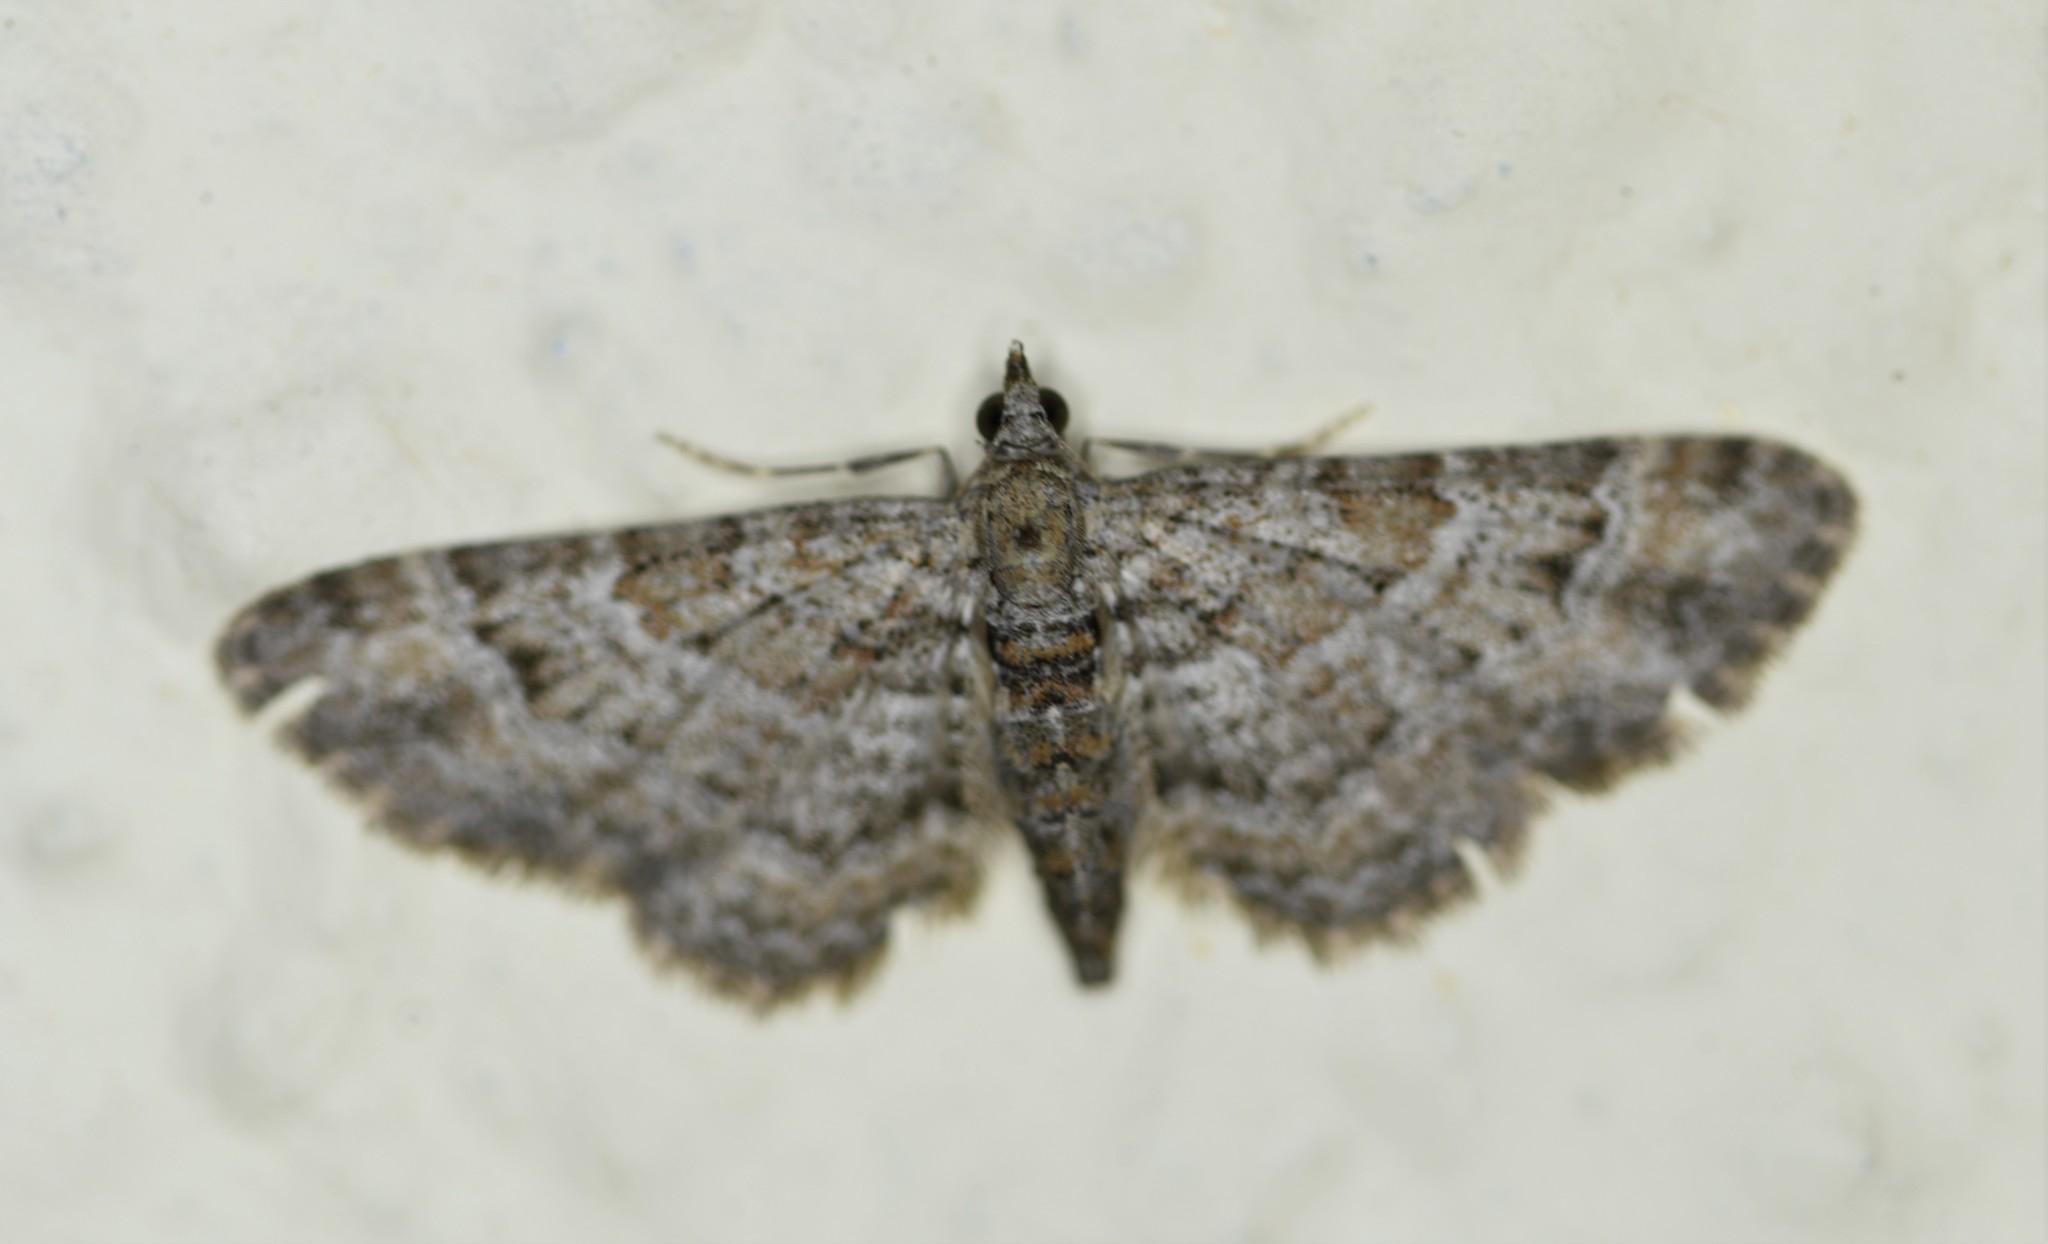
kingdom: Animalia
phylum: Arthropoda
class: Insecta
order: Lepidoptera
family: Geometridae
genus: Gymnoscelis
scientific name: Gymnoscelis rufifasciata
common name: Double-striped pug
